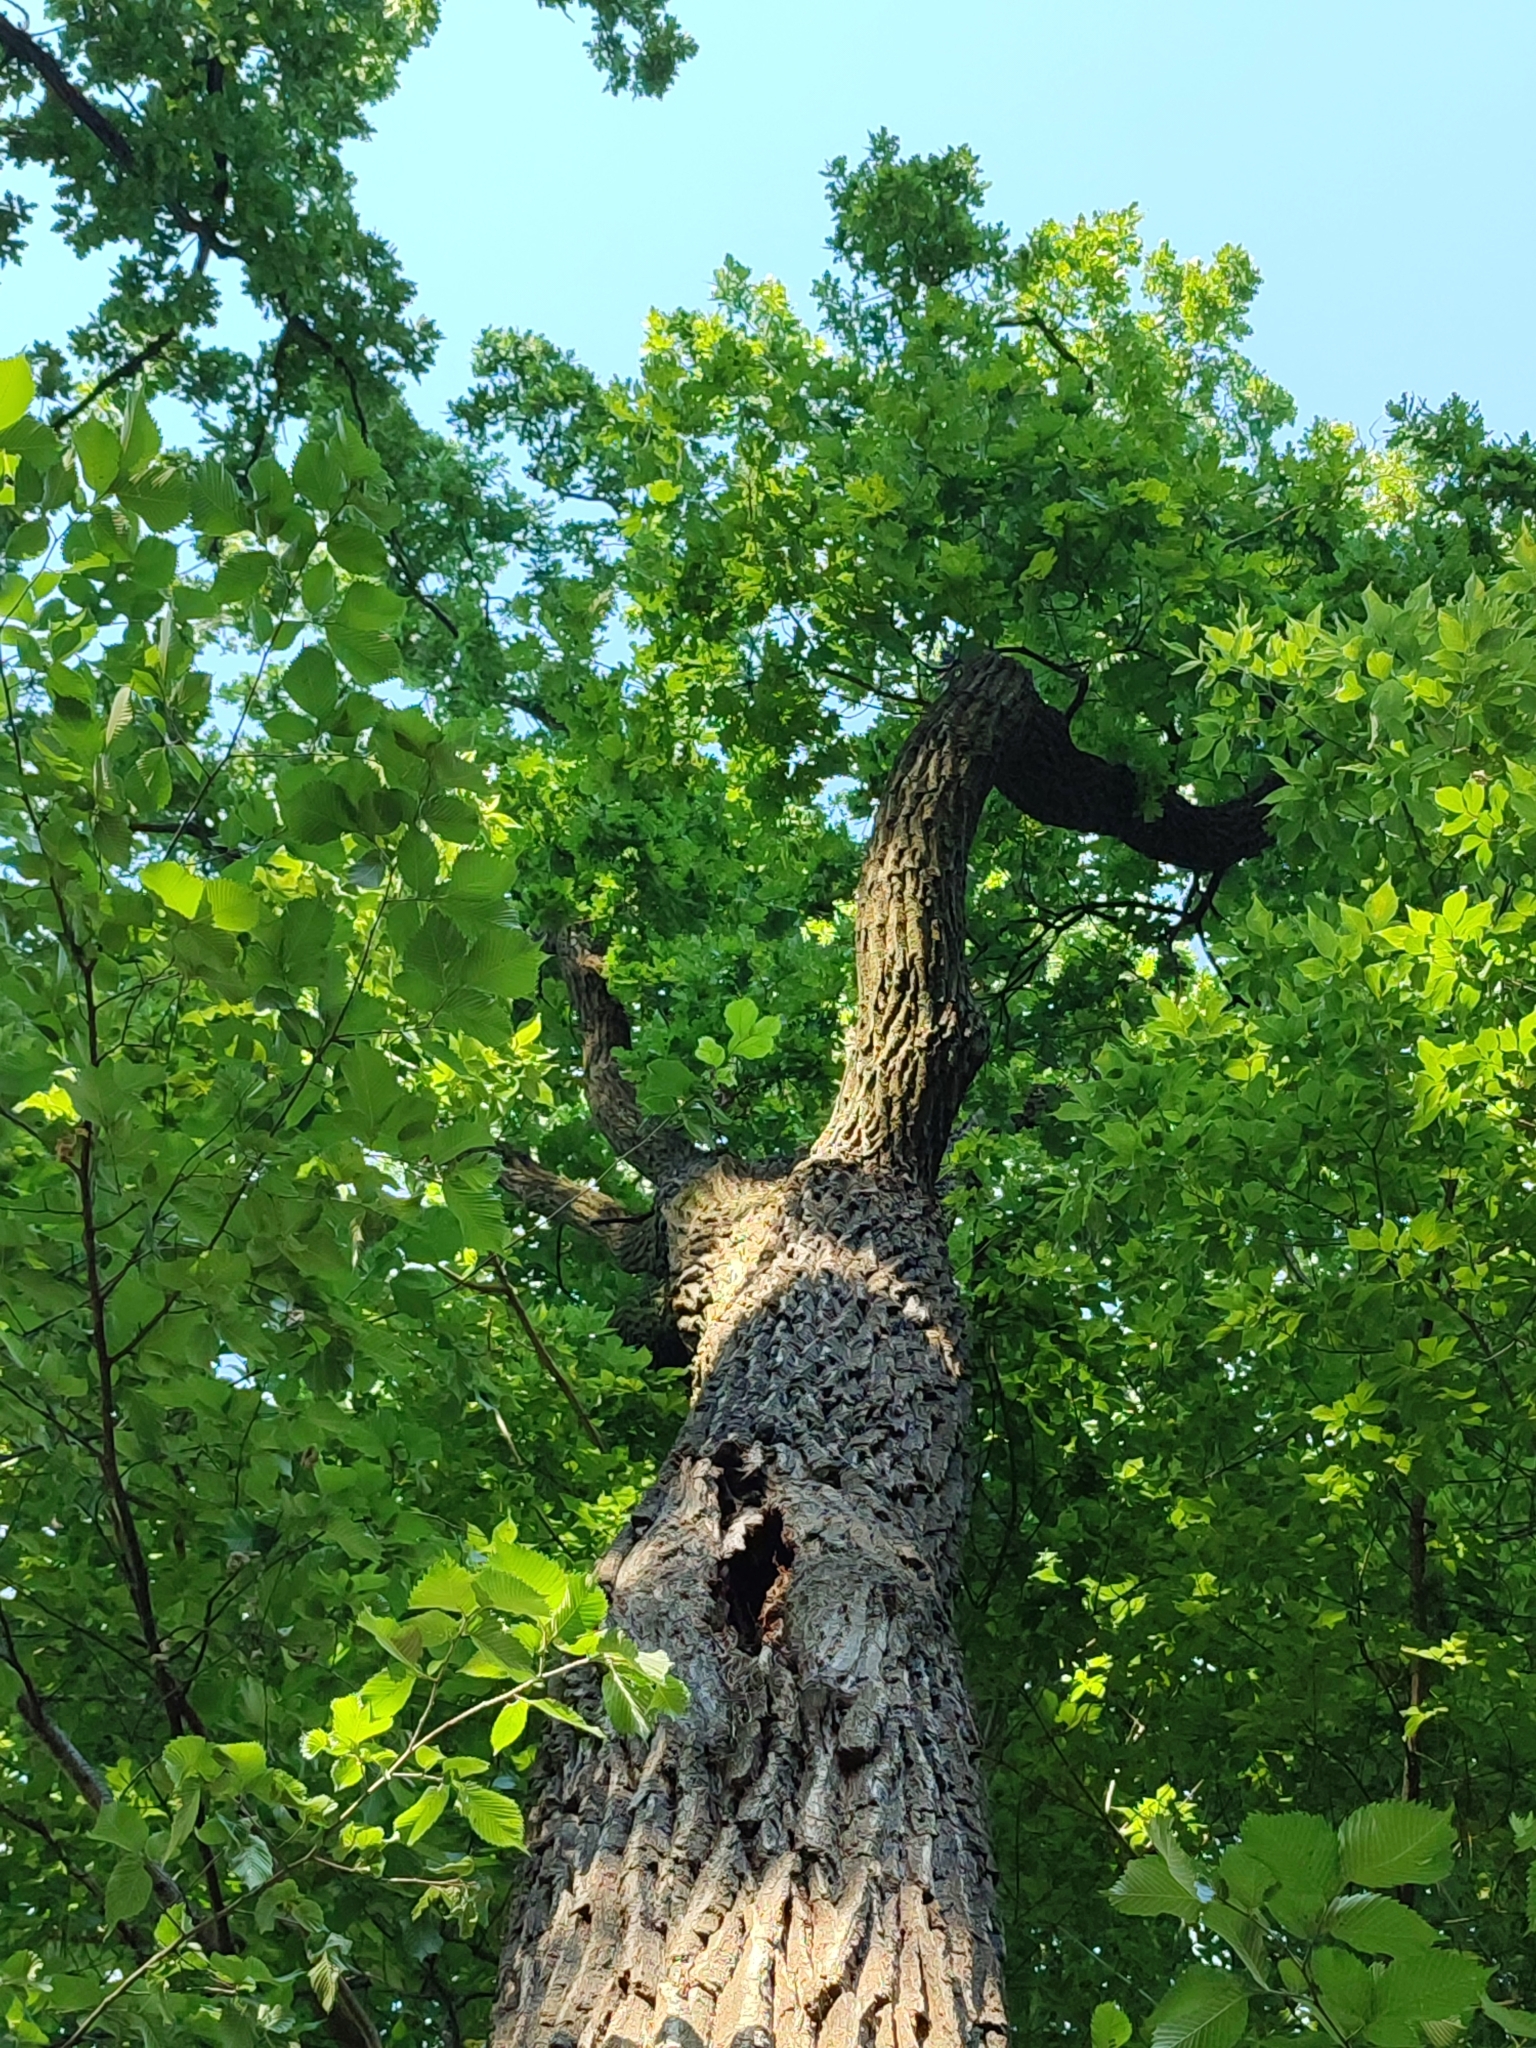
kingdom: Plantae
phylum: Tracheophyta
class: Magnoliopsida
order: Fagales
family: Fagaceae
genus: Quercus
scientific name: Quercus robur
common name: Pedunculate oak
